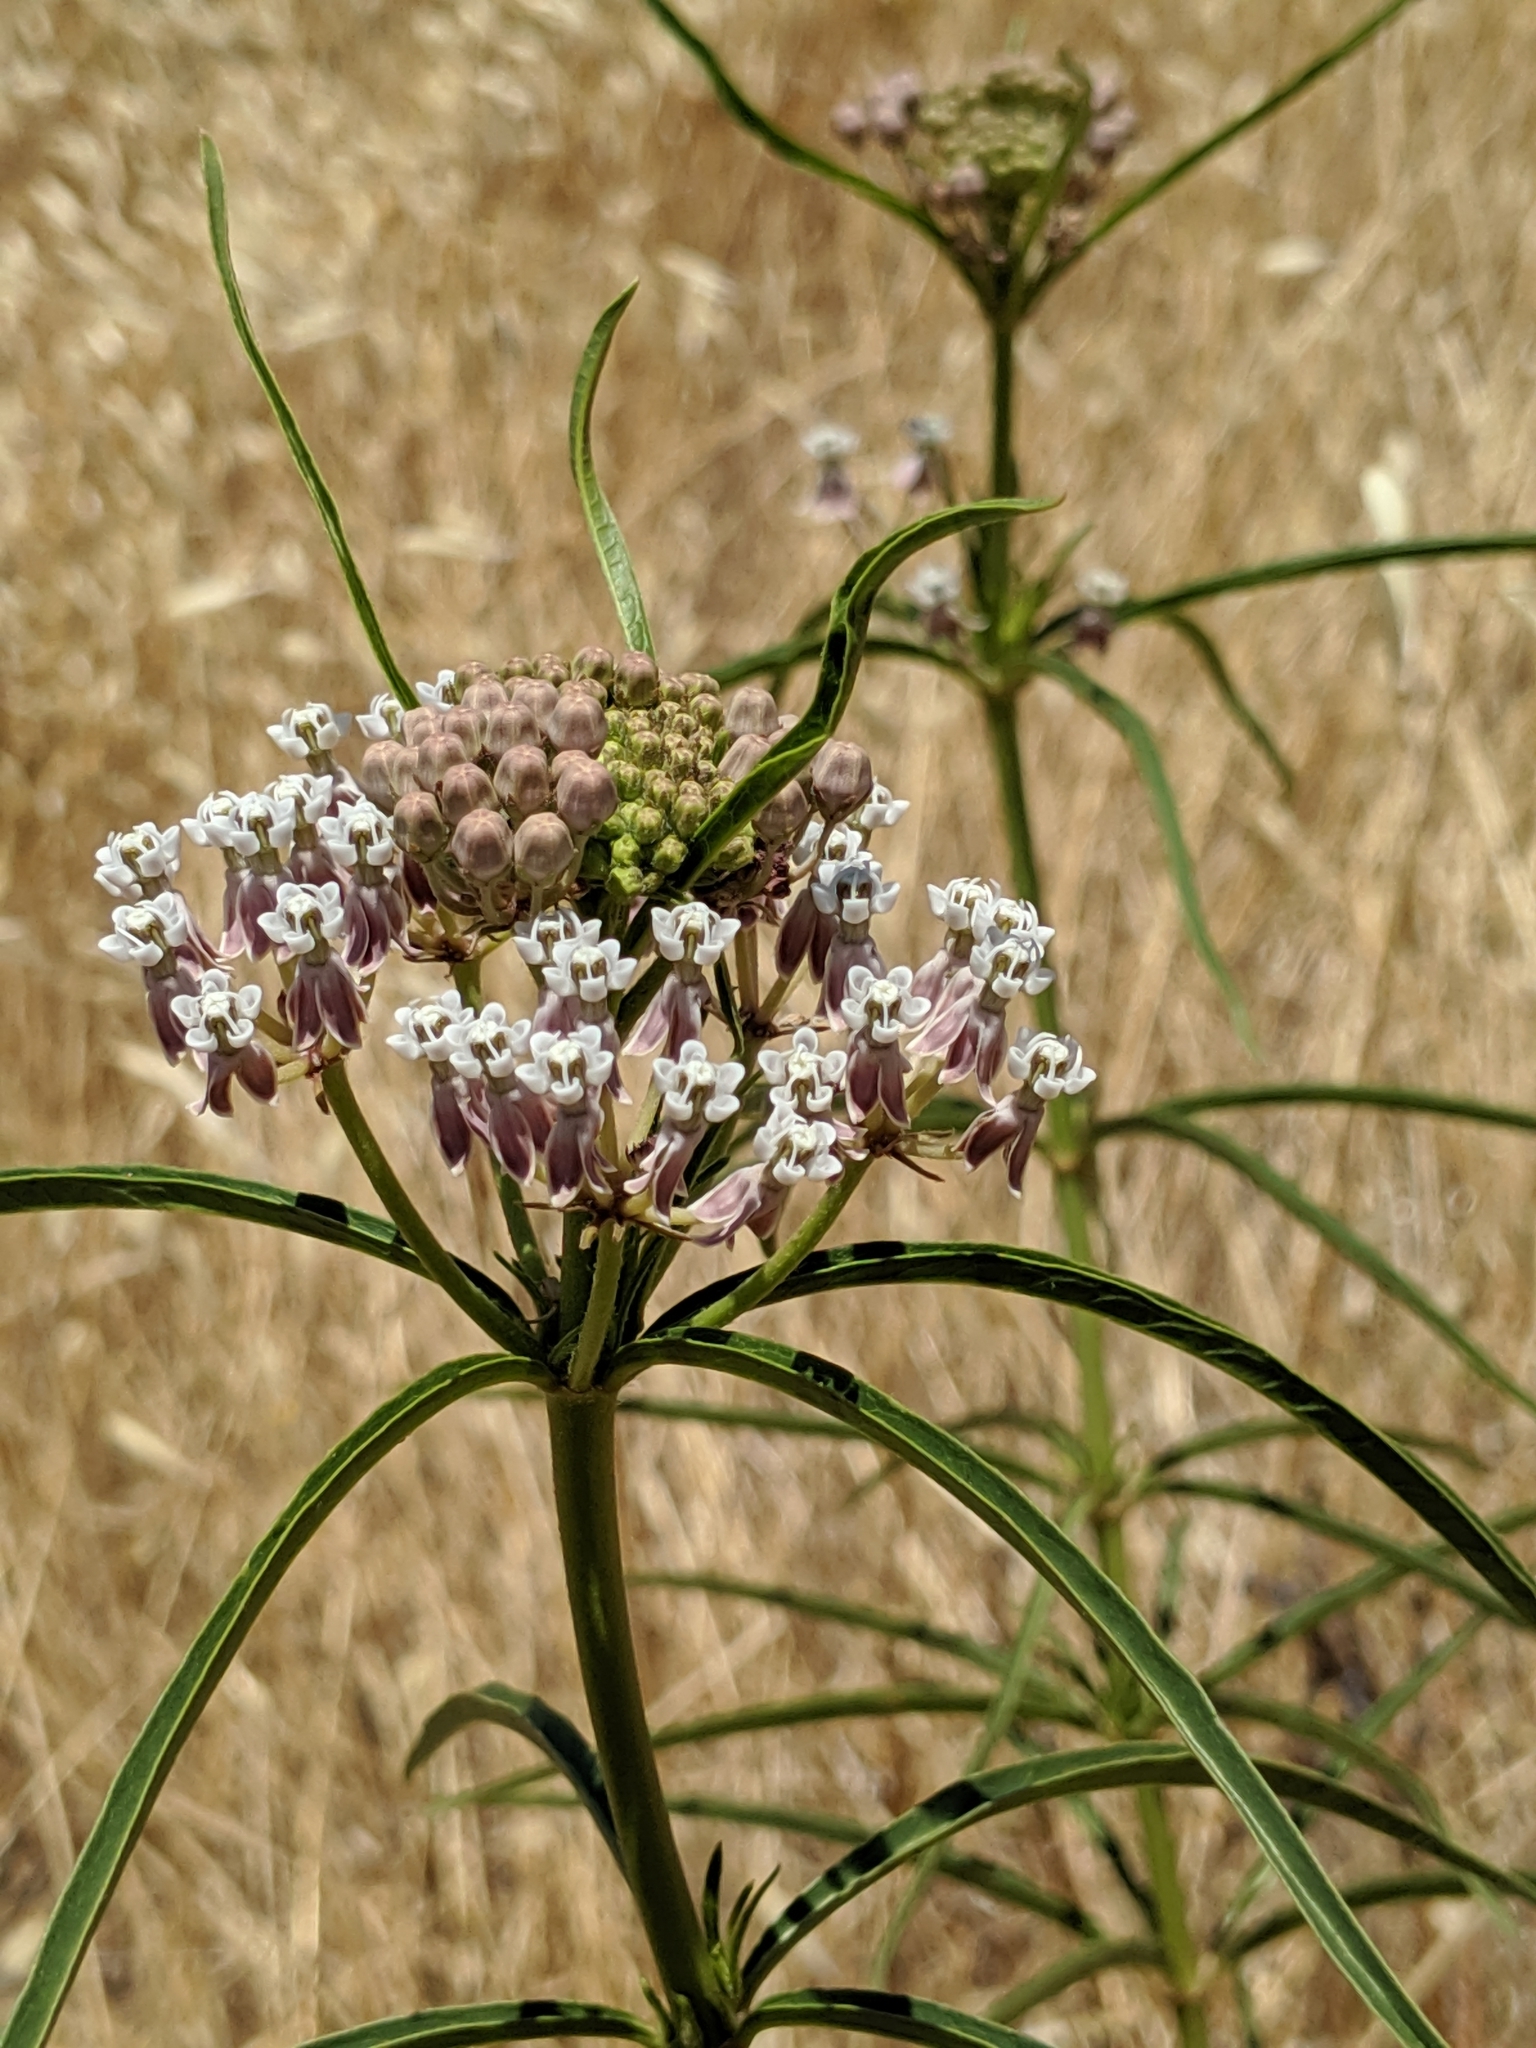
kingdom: Plantae
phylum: Tracheophyta
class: Magnoliopsida
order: Gentianales
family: Apocynaceae
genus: Asclepias
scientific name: Asclepias fascicularis
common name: Mexican milkweed
